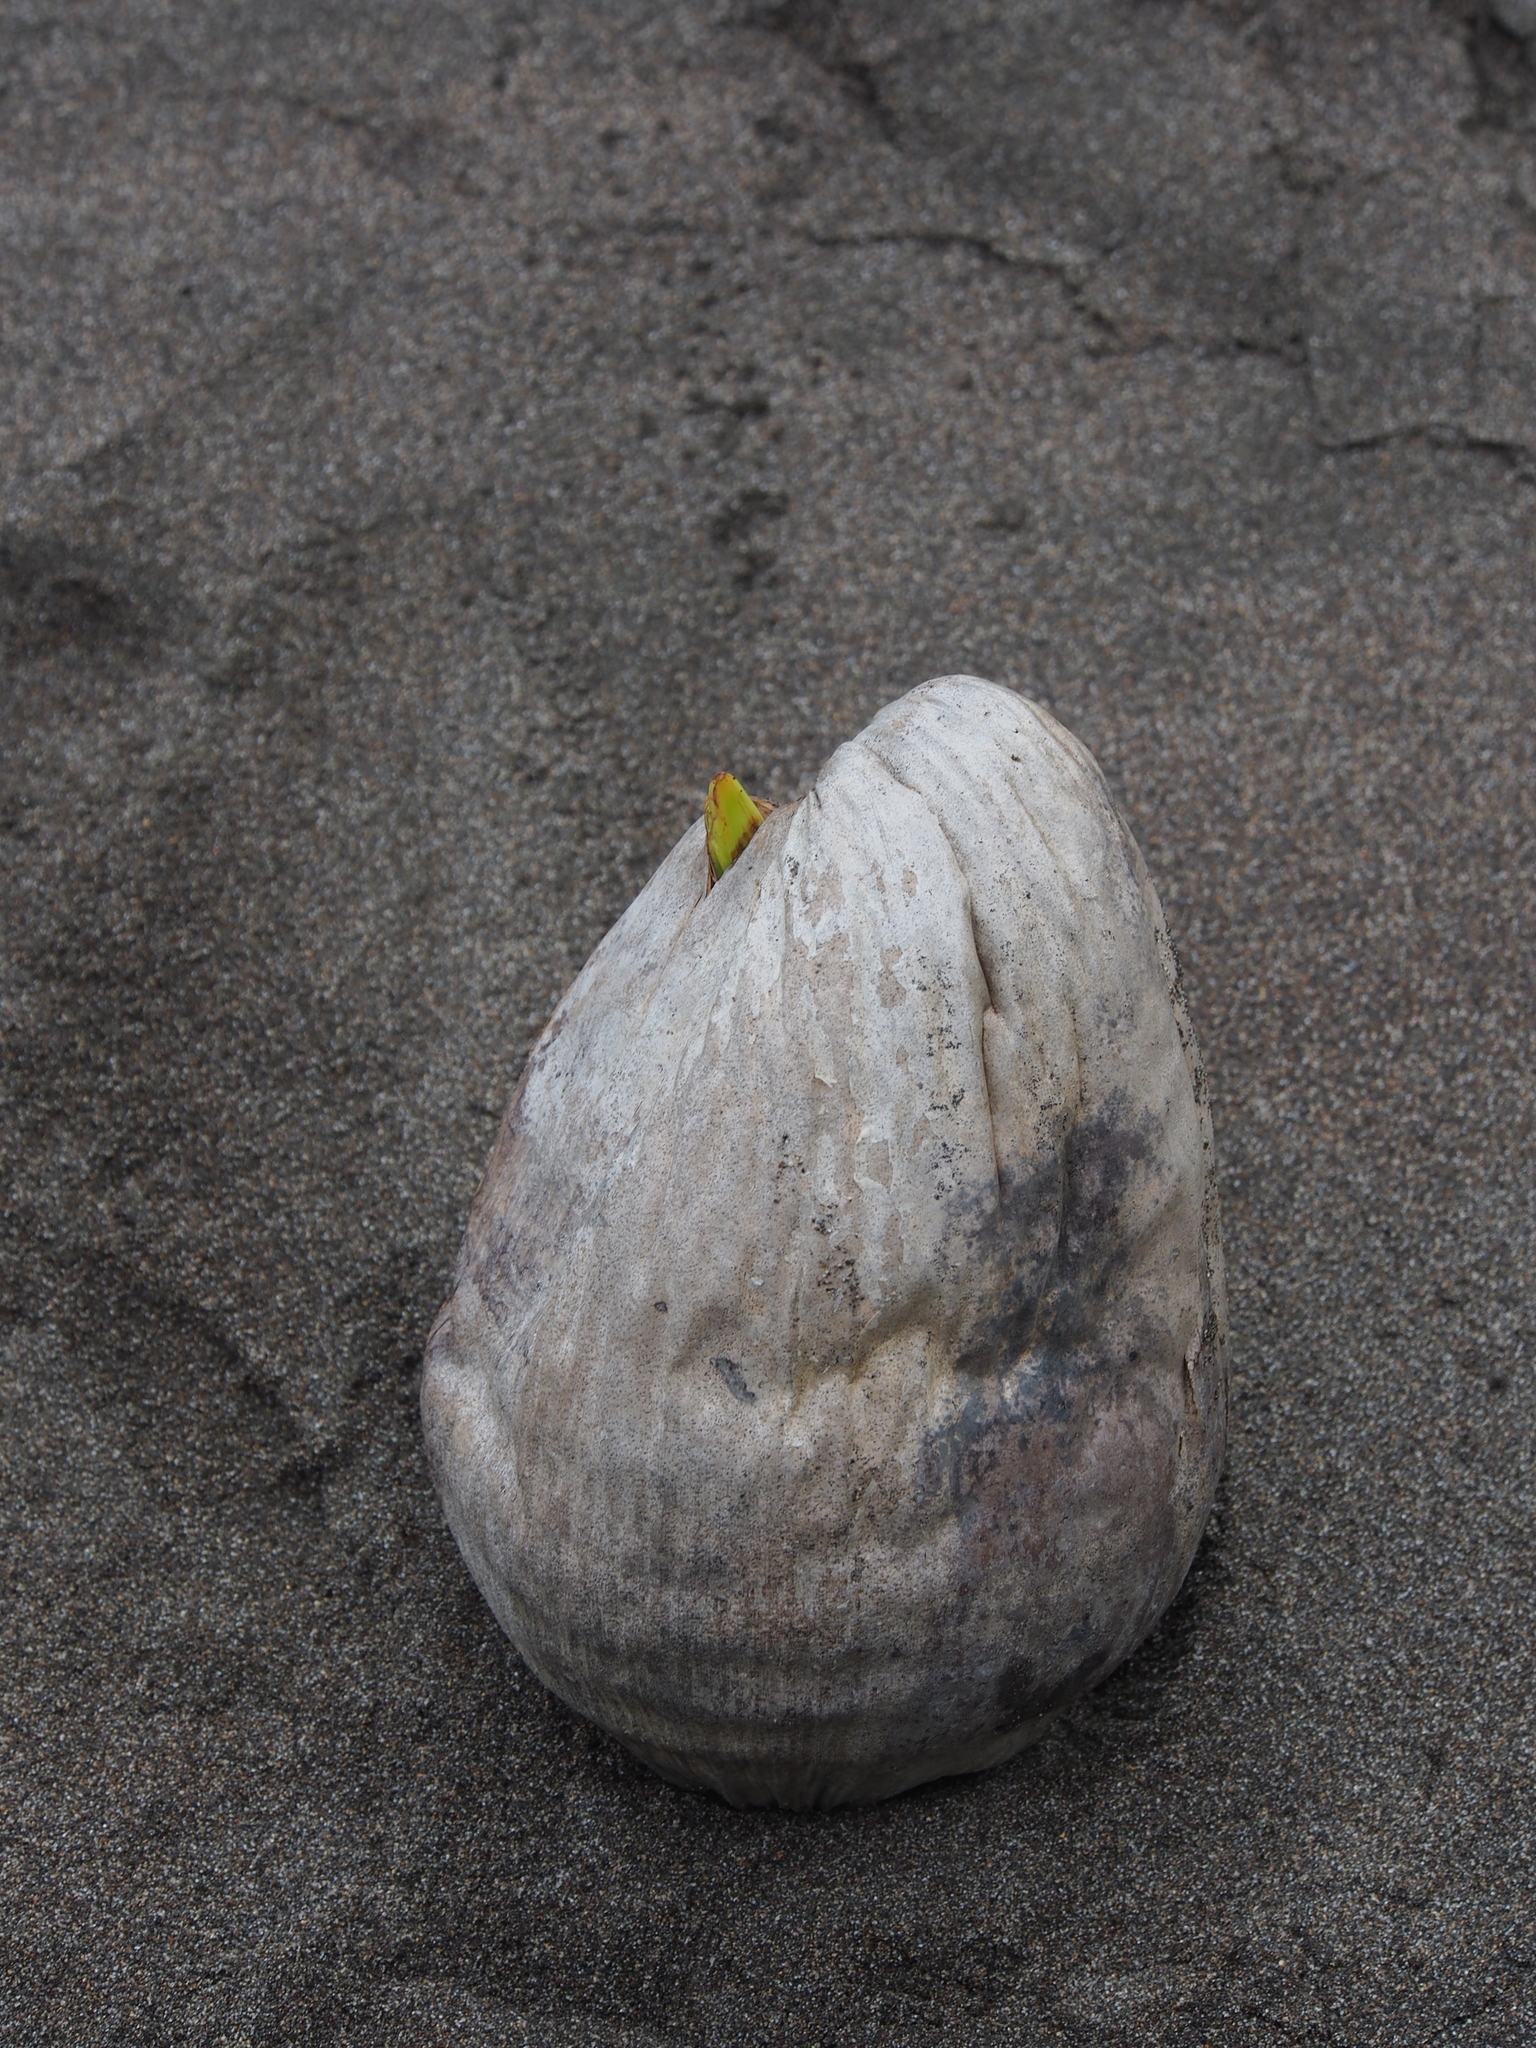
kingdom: Plantae
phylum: Tracheophyta
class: Liliopsida
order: Arecales
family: Arecaceae
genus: Cocos
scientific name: Cocos nucifera
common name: Coconut palm
